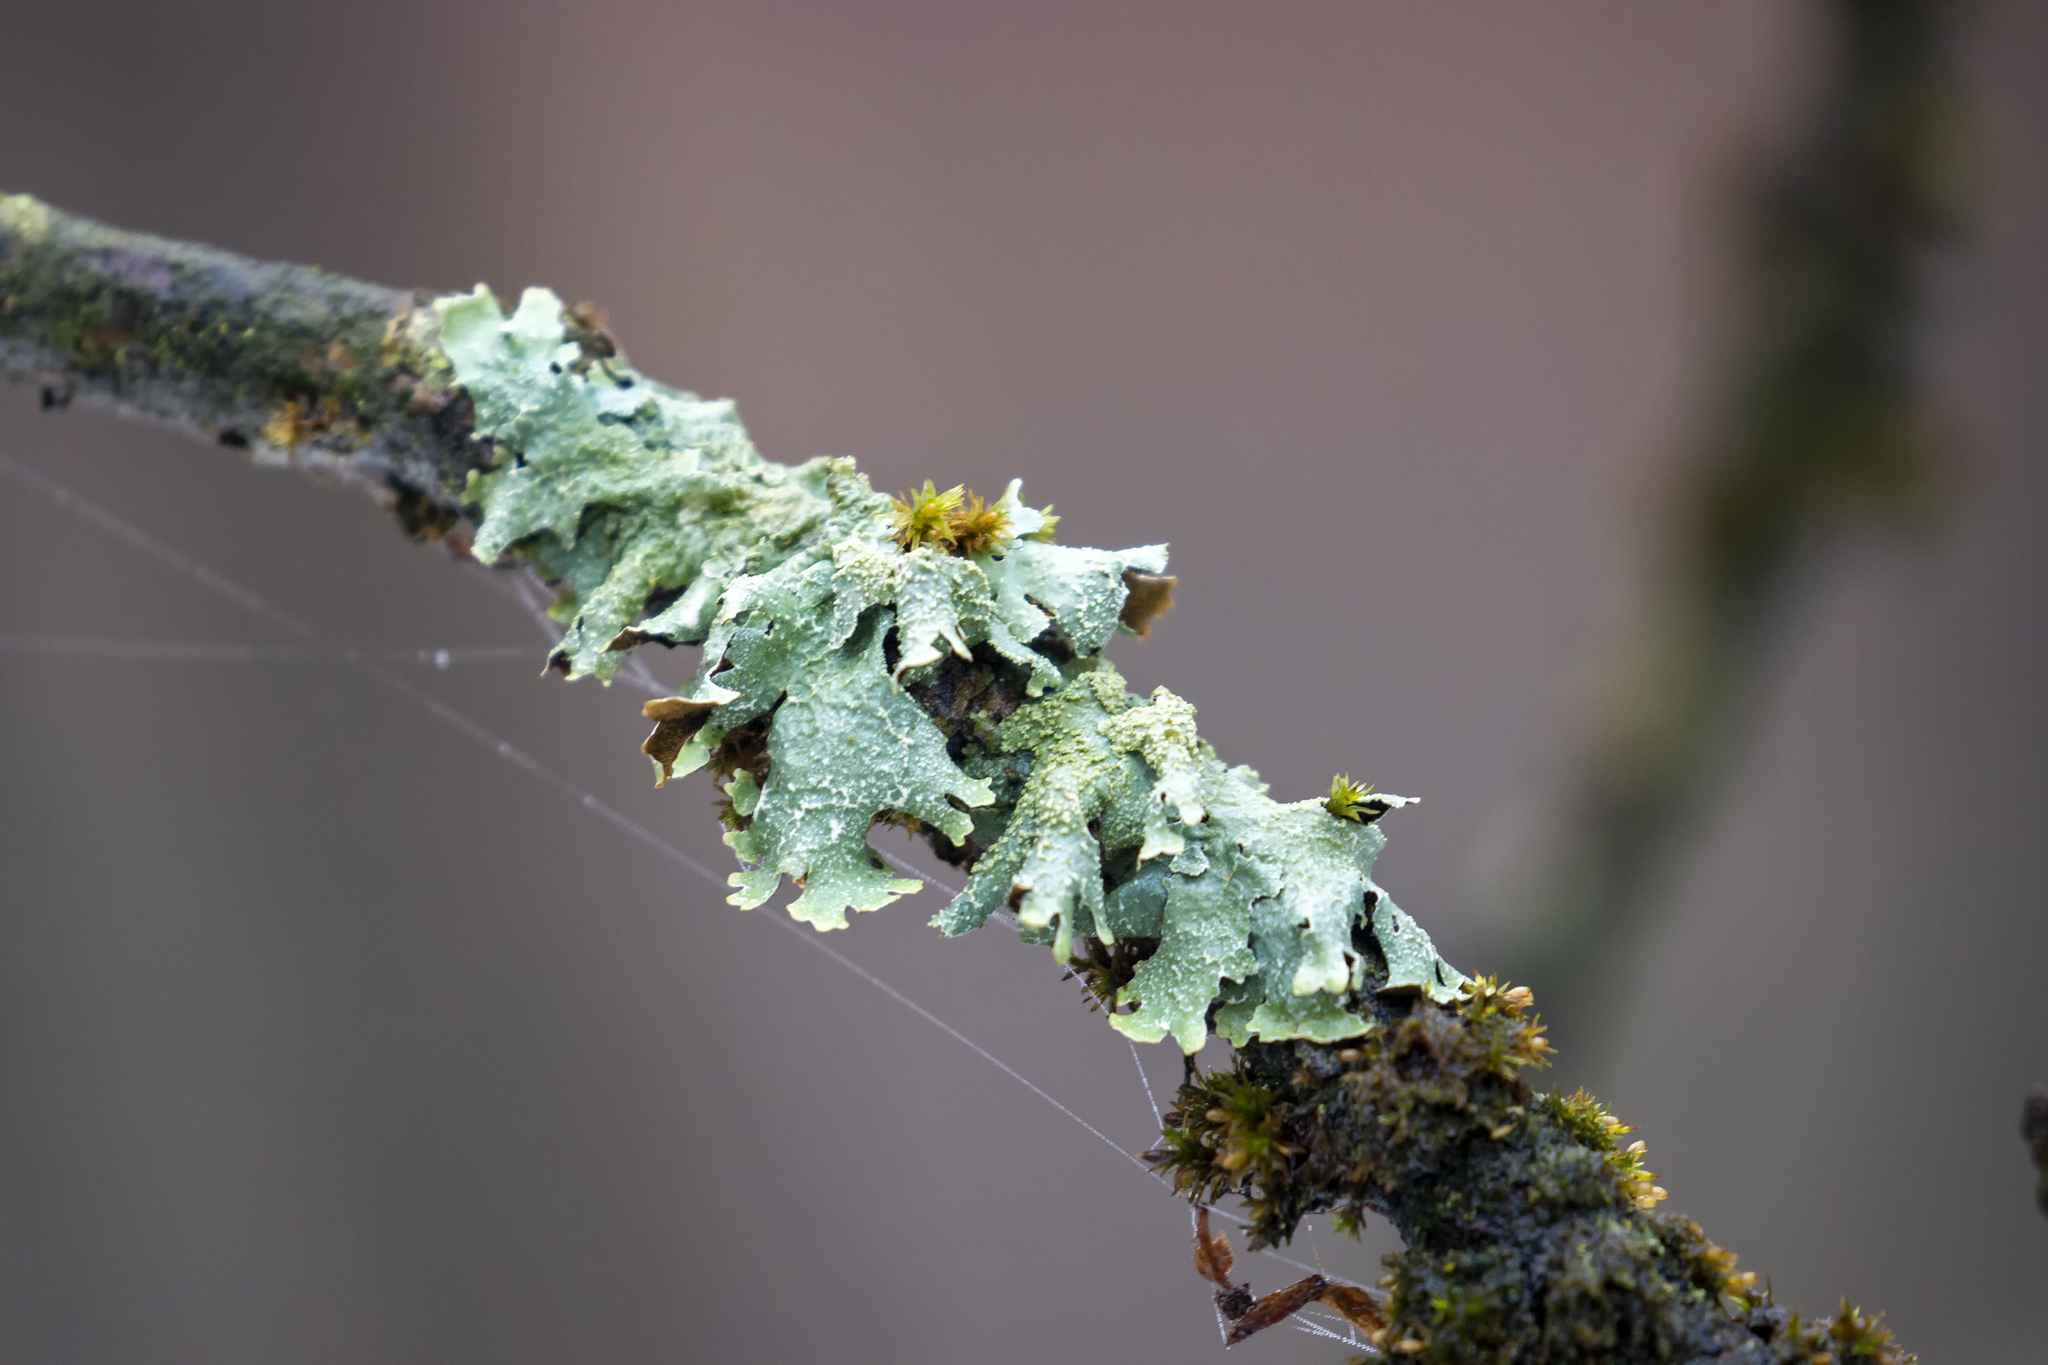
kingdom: Fungi
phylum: Ascomycota
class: Lecanoromycetes
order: Lecanorales
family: Parmeliaceae
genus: Parmelia
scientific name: Parmelia submontana
